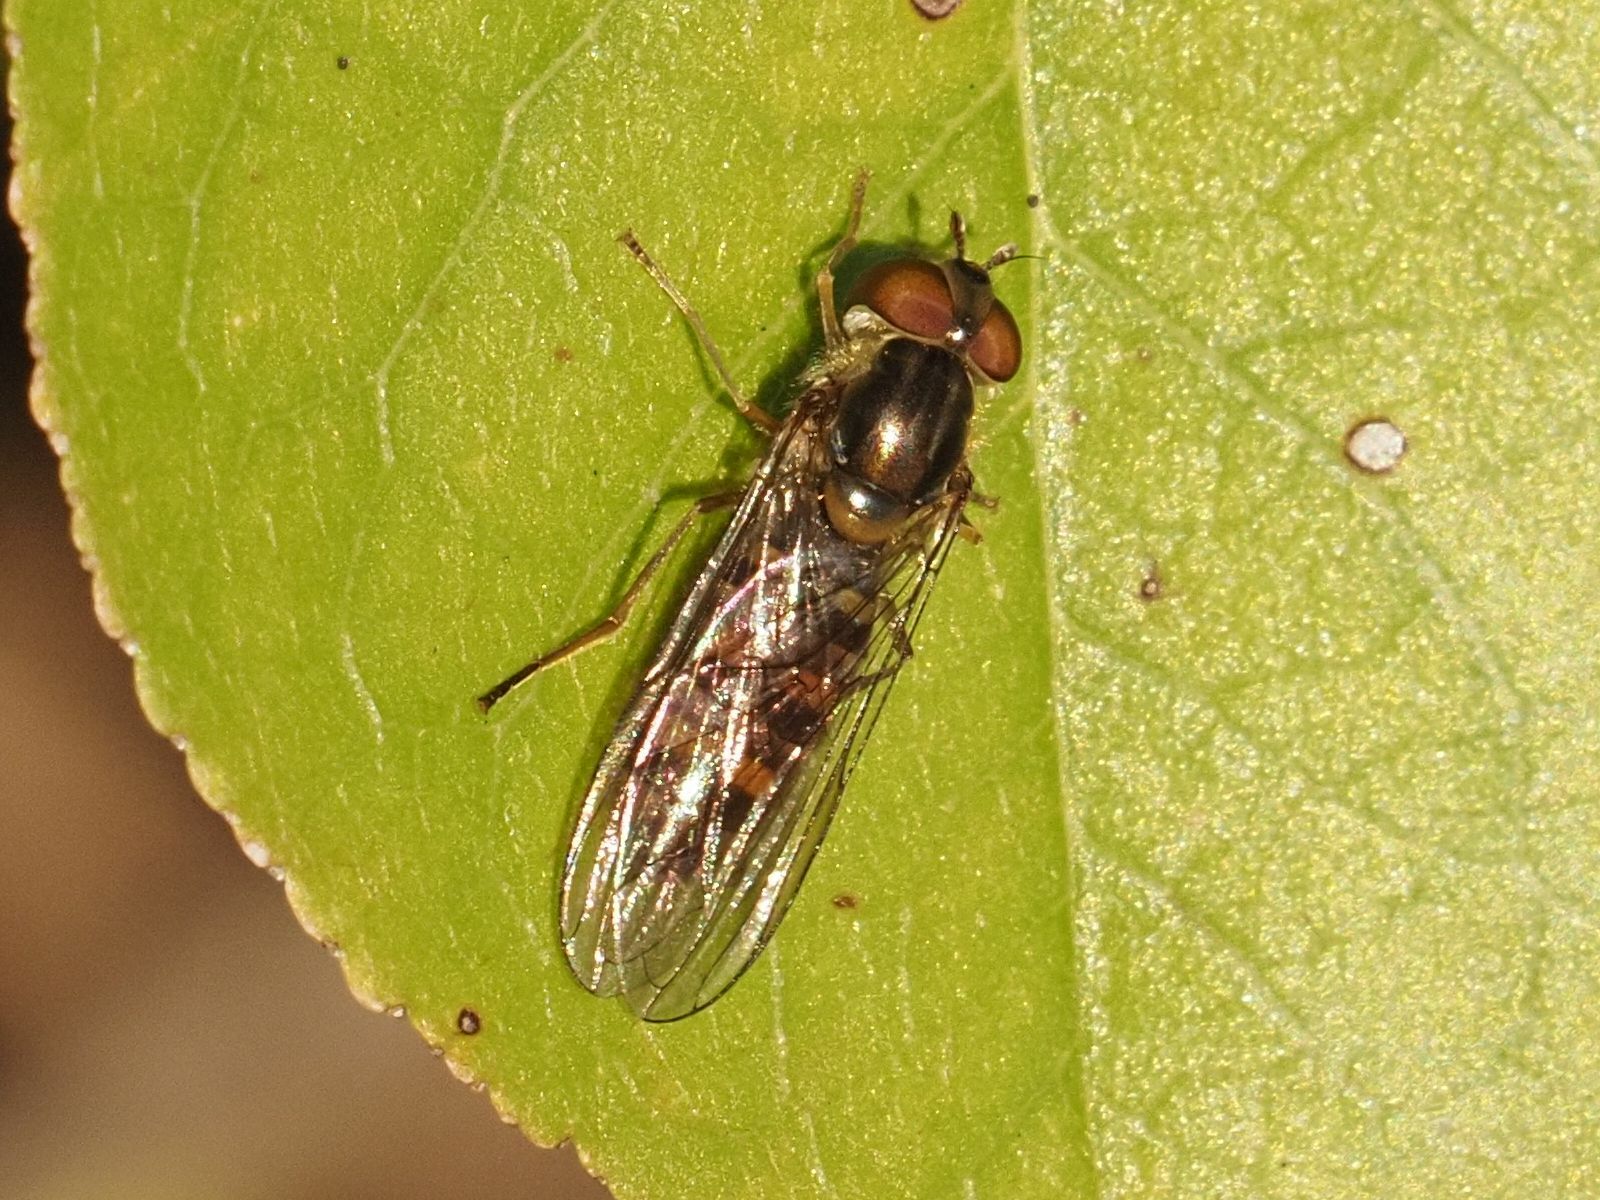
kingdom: Animalia
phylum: Arthropoda
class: Insecta
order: Diptera
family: Syrphidae
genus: Episyrphus
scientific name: Episyrphus balteatus
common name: Marmalade hoverfly
